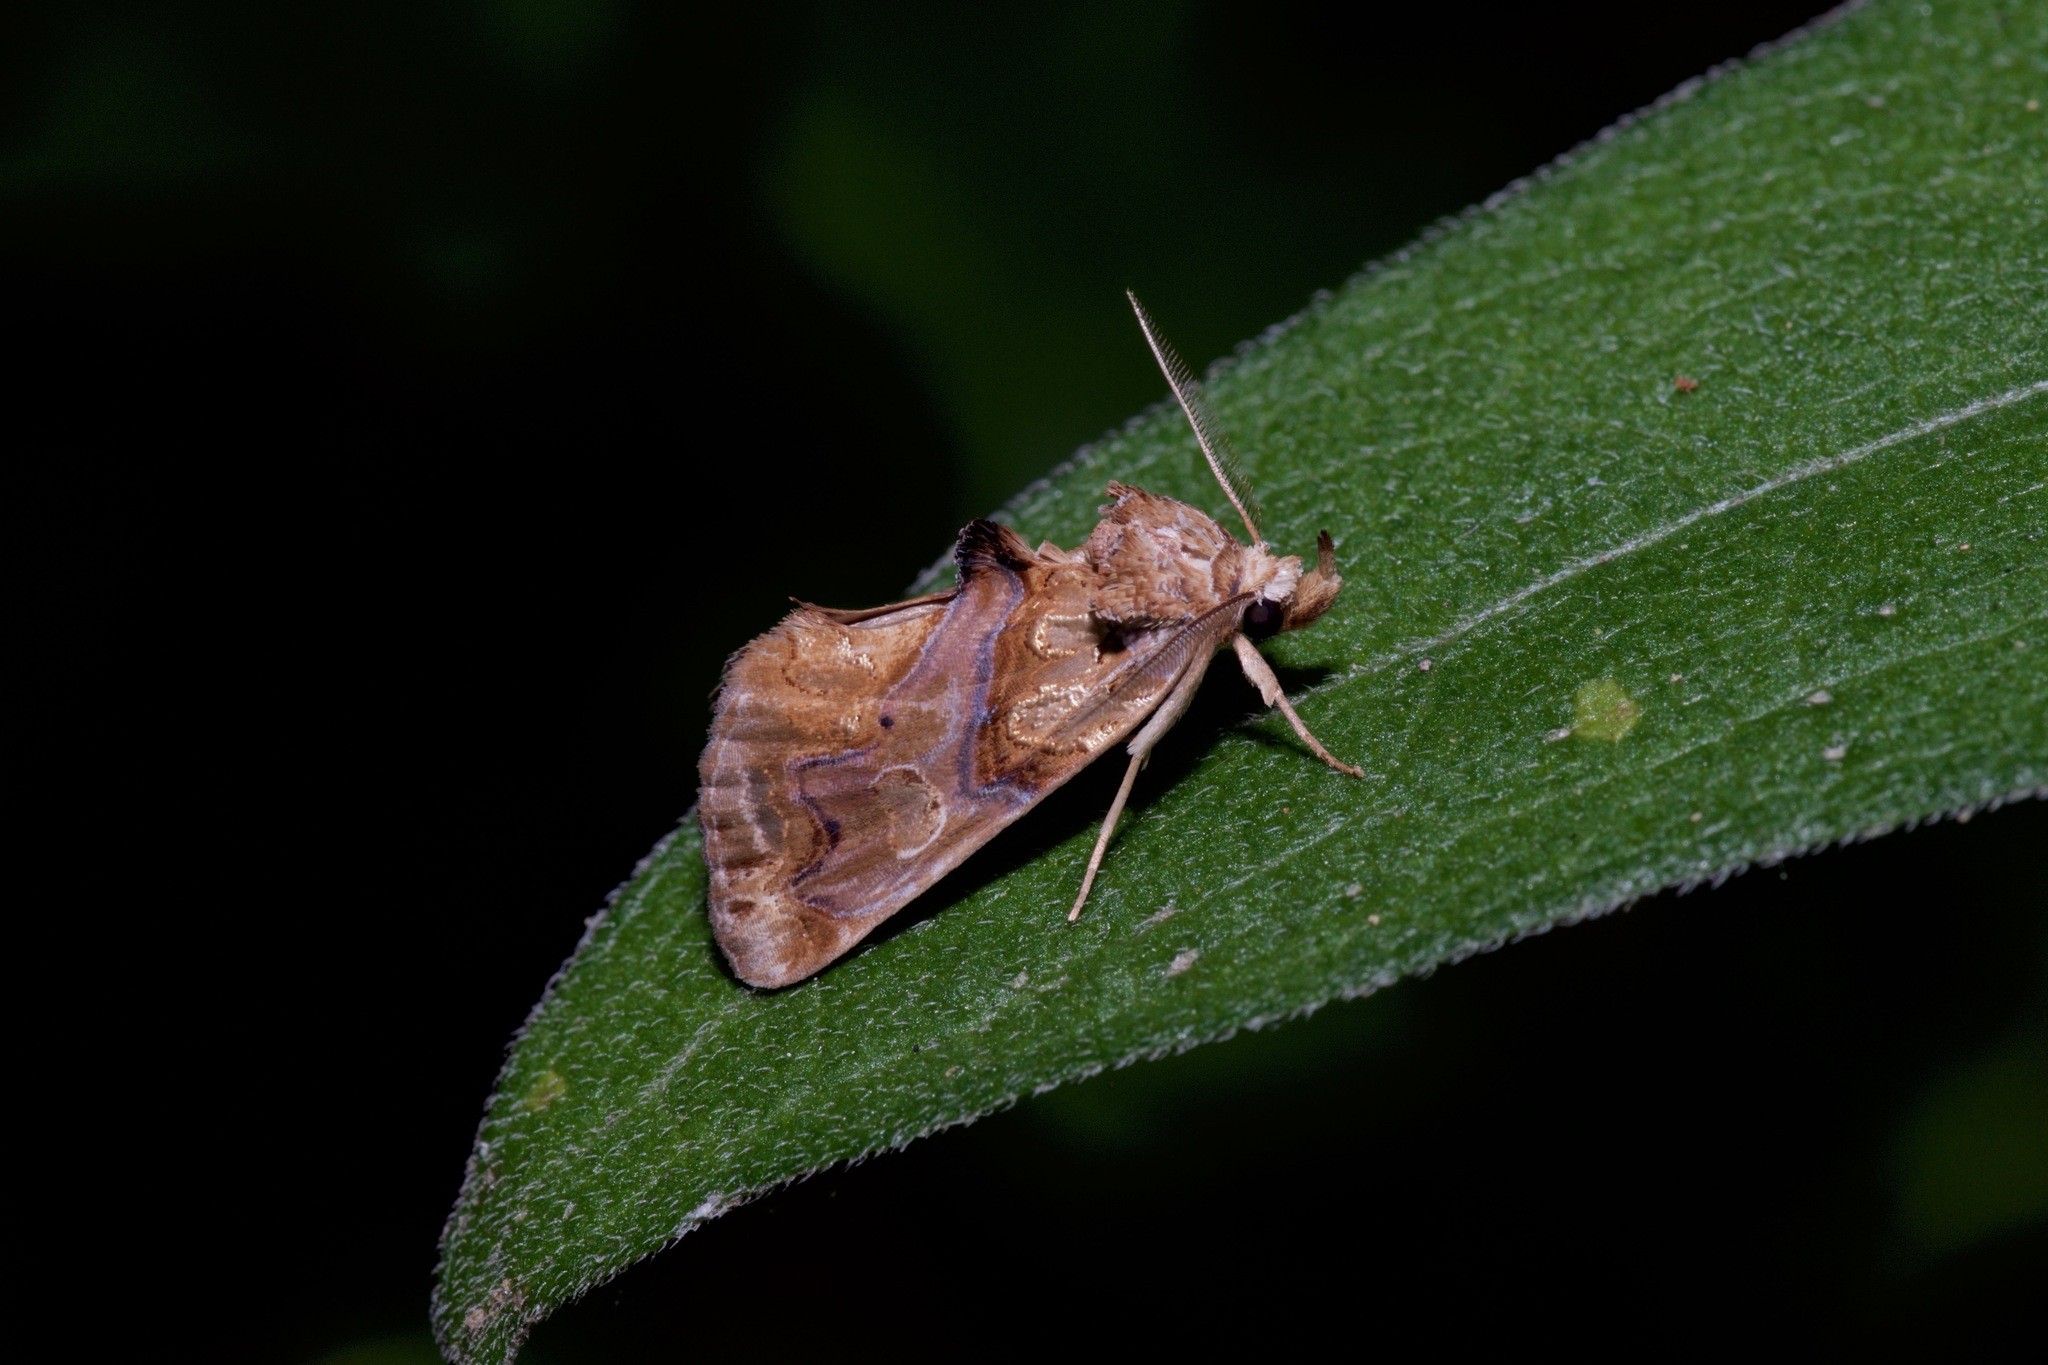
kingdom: Animalia
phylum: Arthropoda
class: Insecta
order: Lepidoptera
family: Erebidae
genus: Plusiodonta
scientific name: Plusiodonta compressipalpis
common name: Moonseed moth
